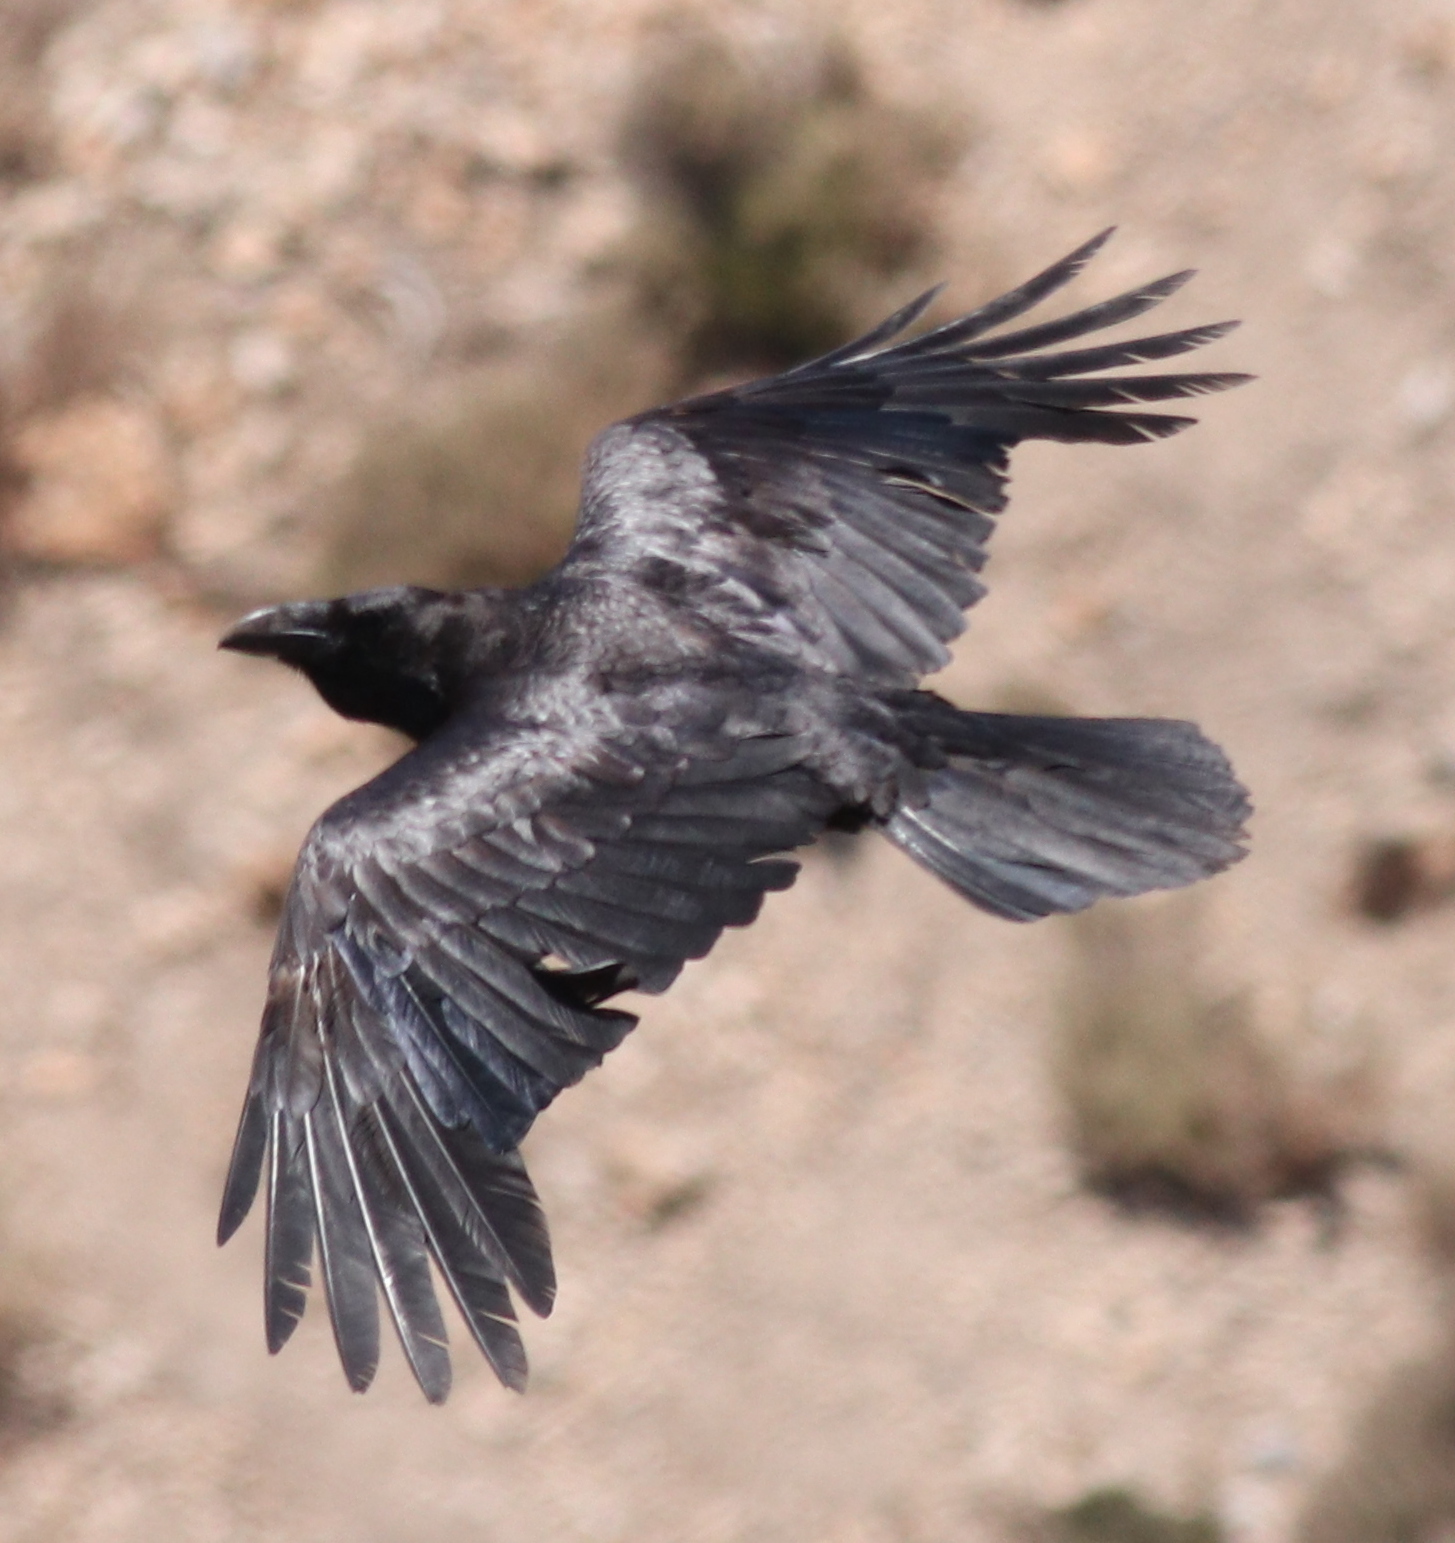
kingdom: Animalia
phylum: Chordata
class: Aves
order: Passeriformes
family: Corvidae
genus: Corvus
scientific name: Corvus corax
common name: Common raven
